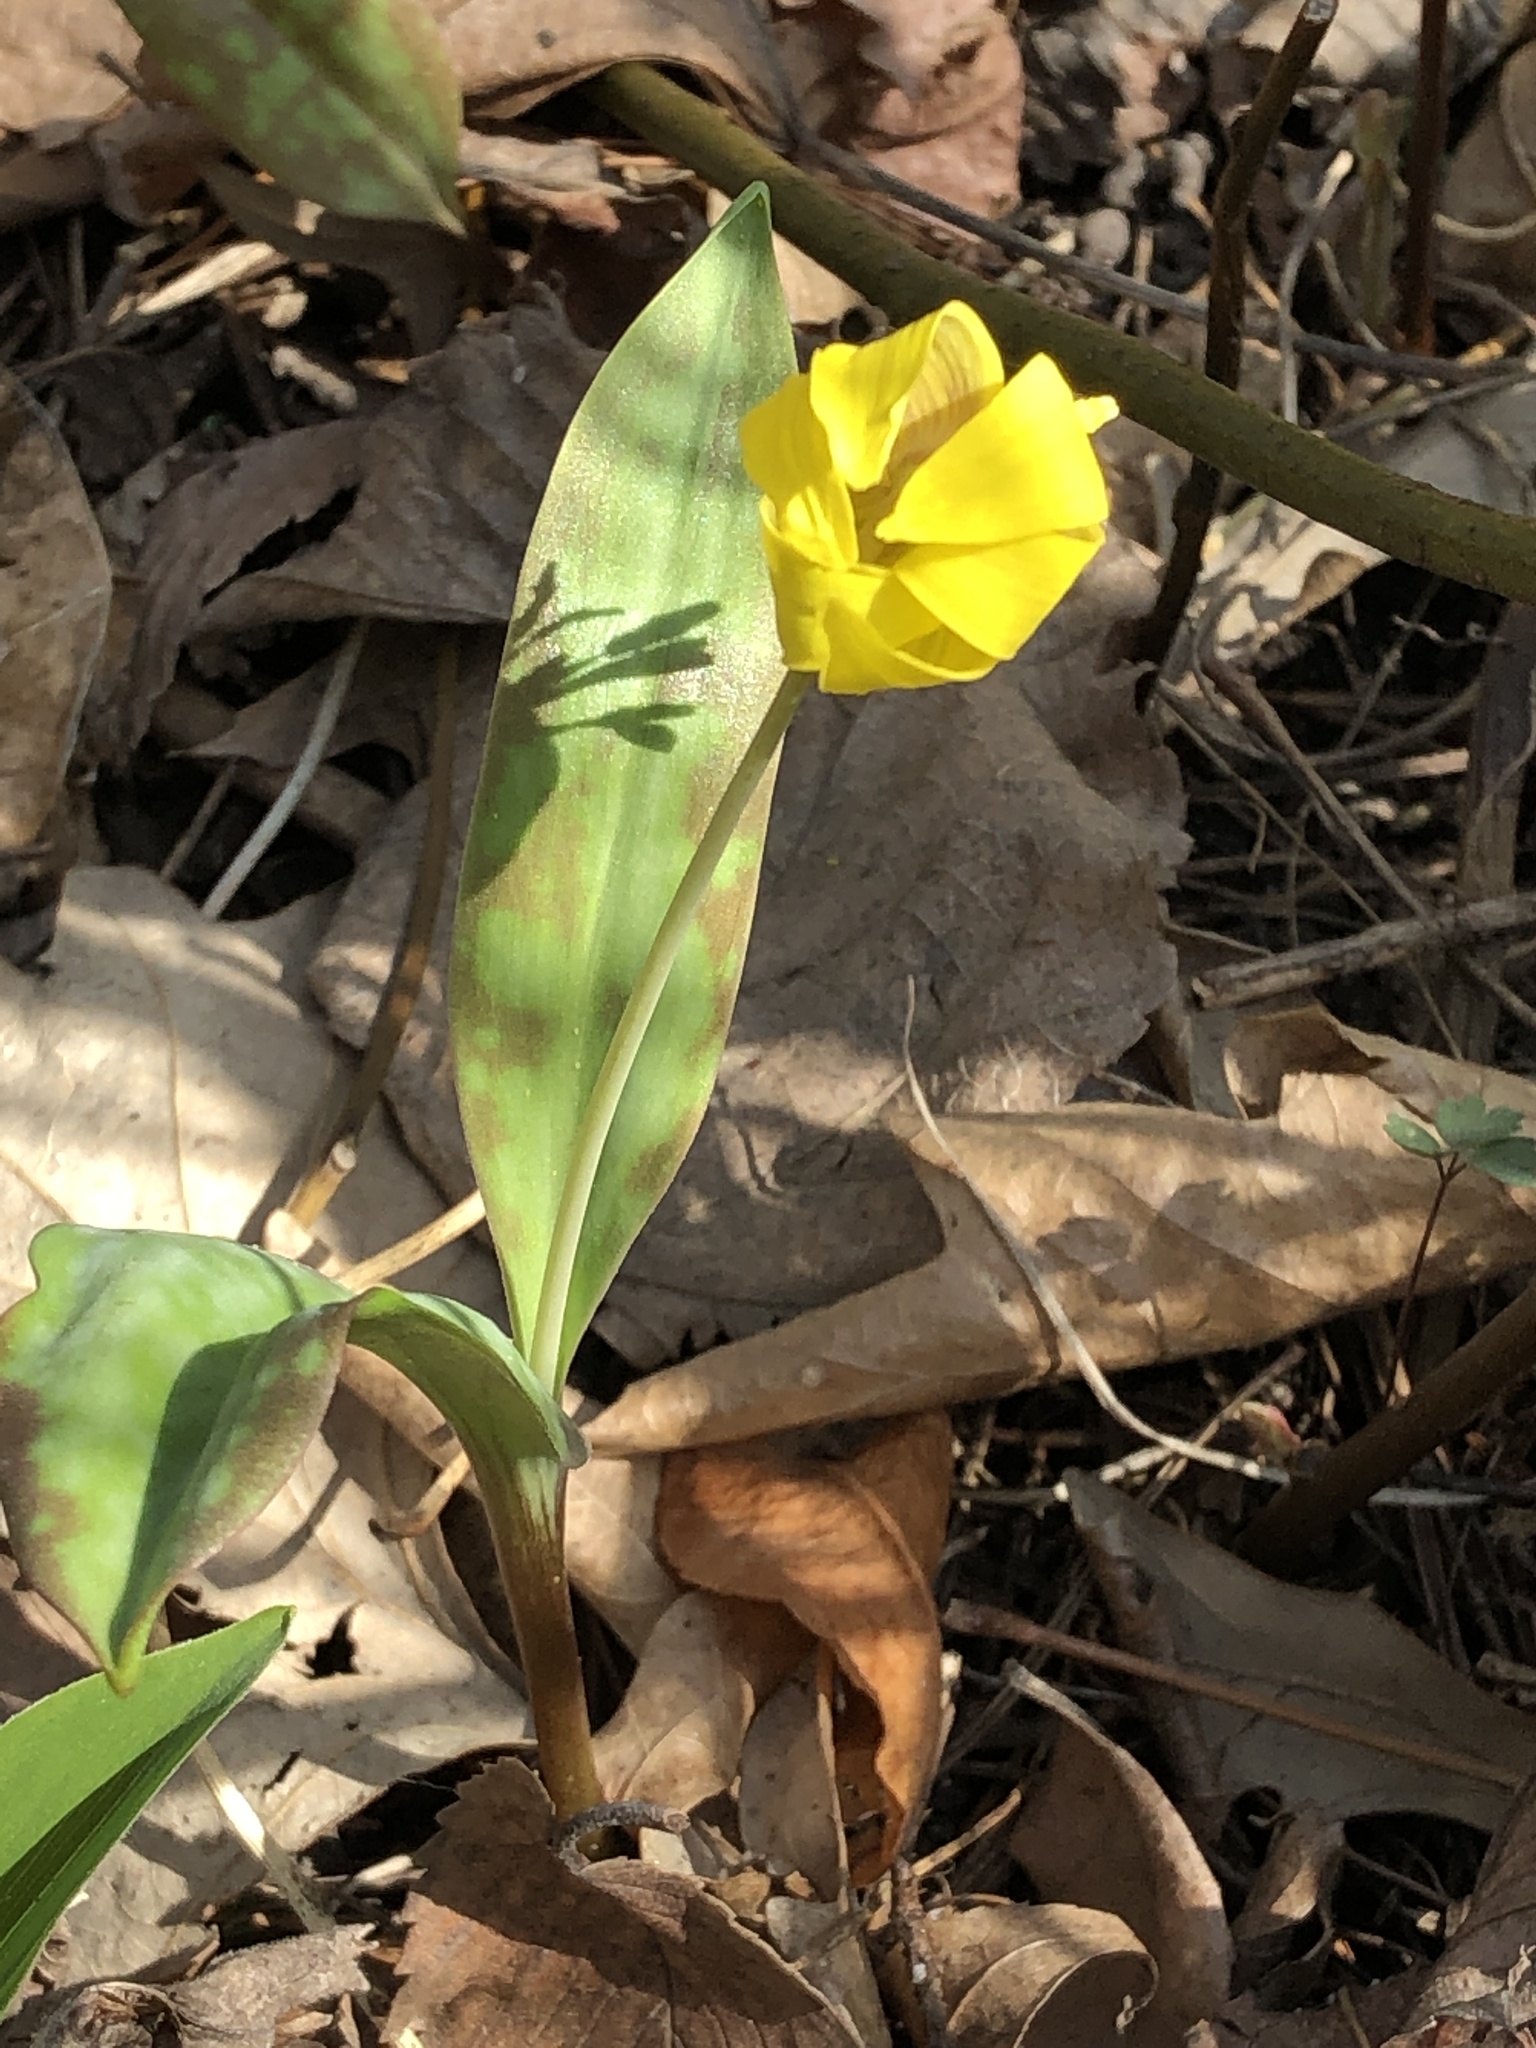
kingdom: Plantae
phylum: Tracheophyta
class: Liliopsida
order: Liliales
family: Liliaceae
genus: Erythronium
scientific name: Erythronium americanum
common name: Yellow adder's-tongue
